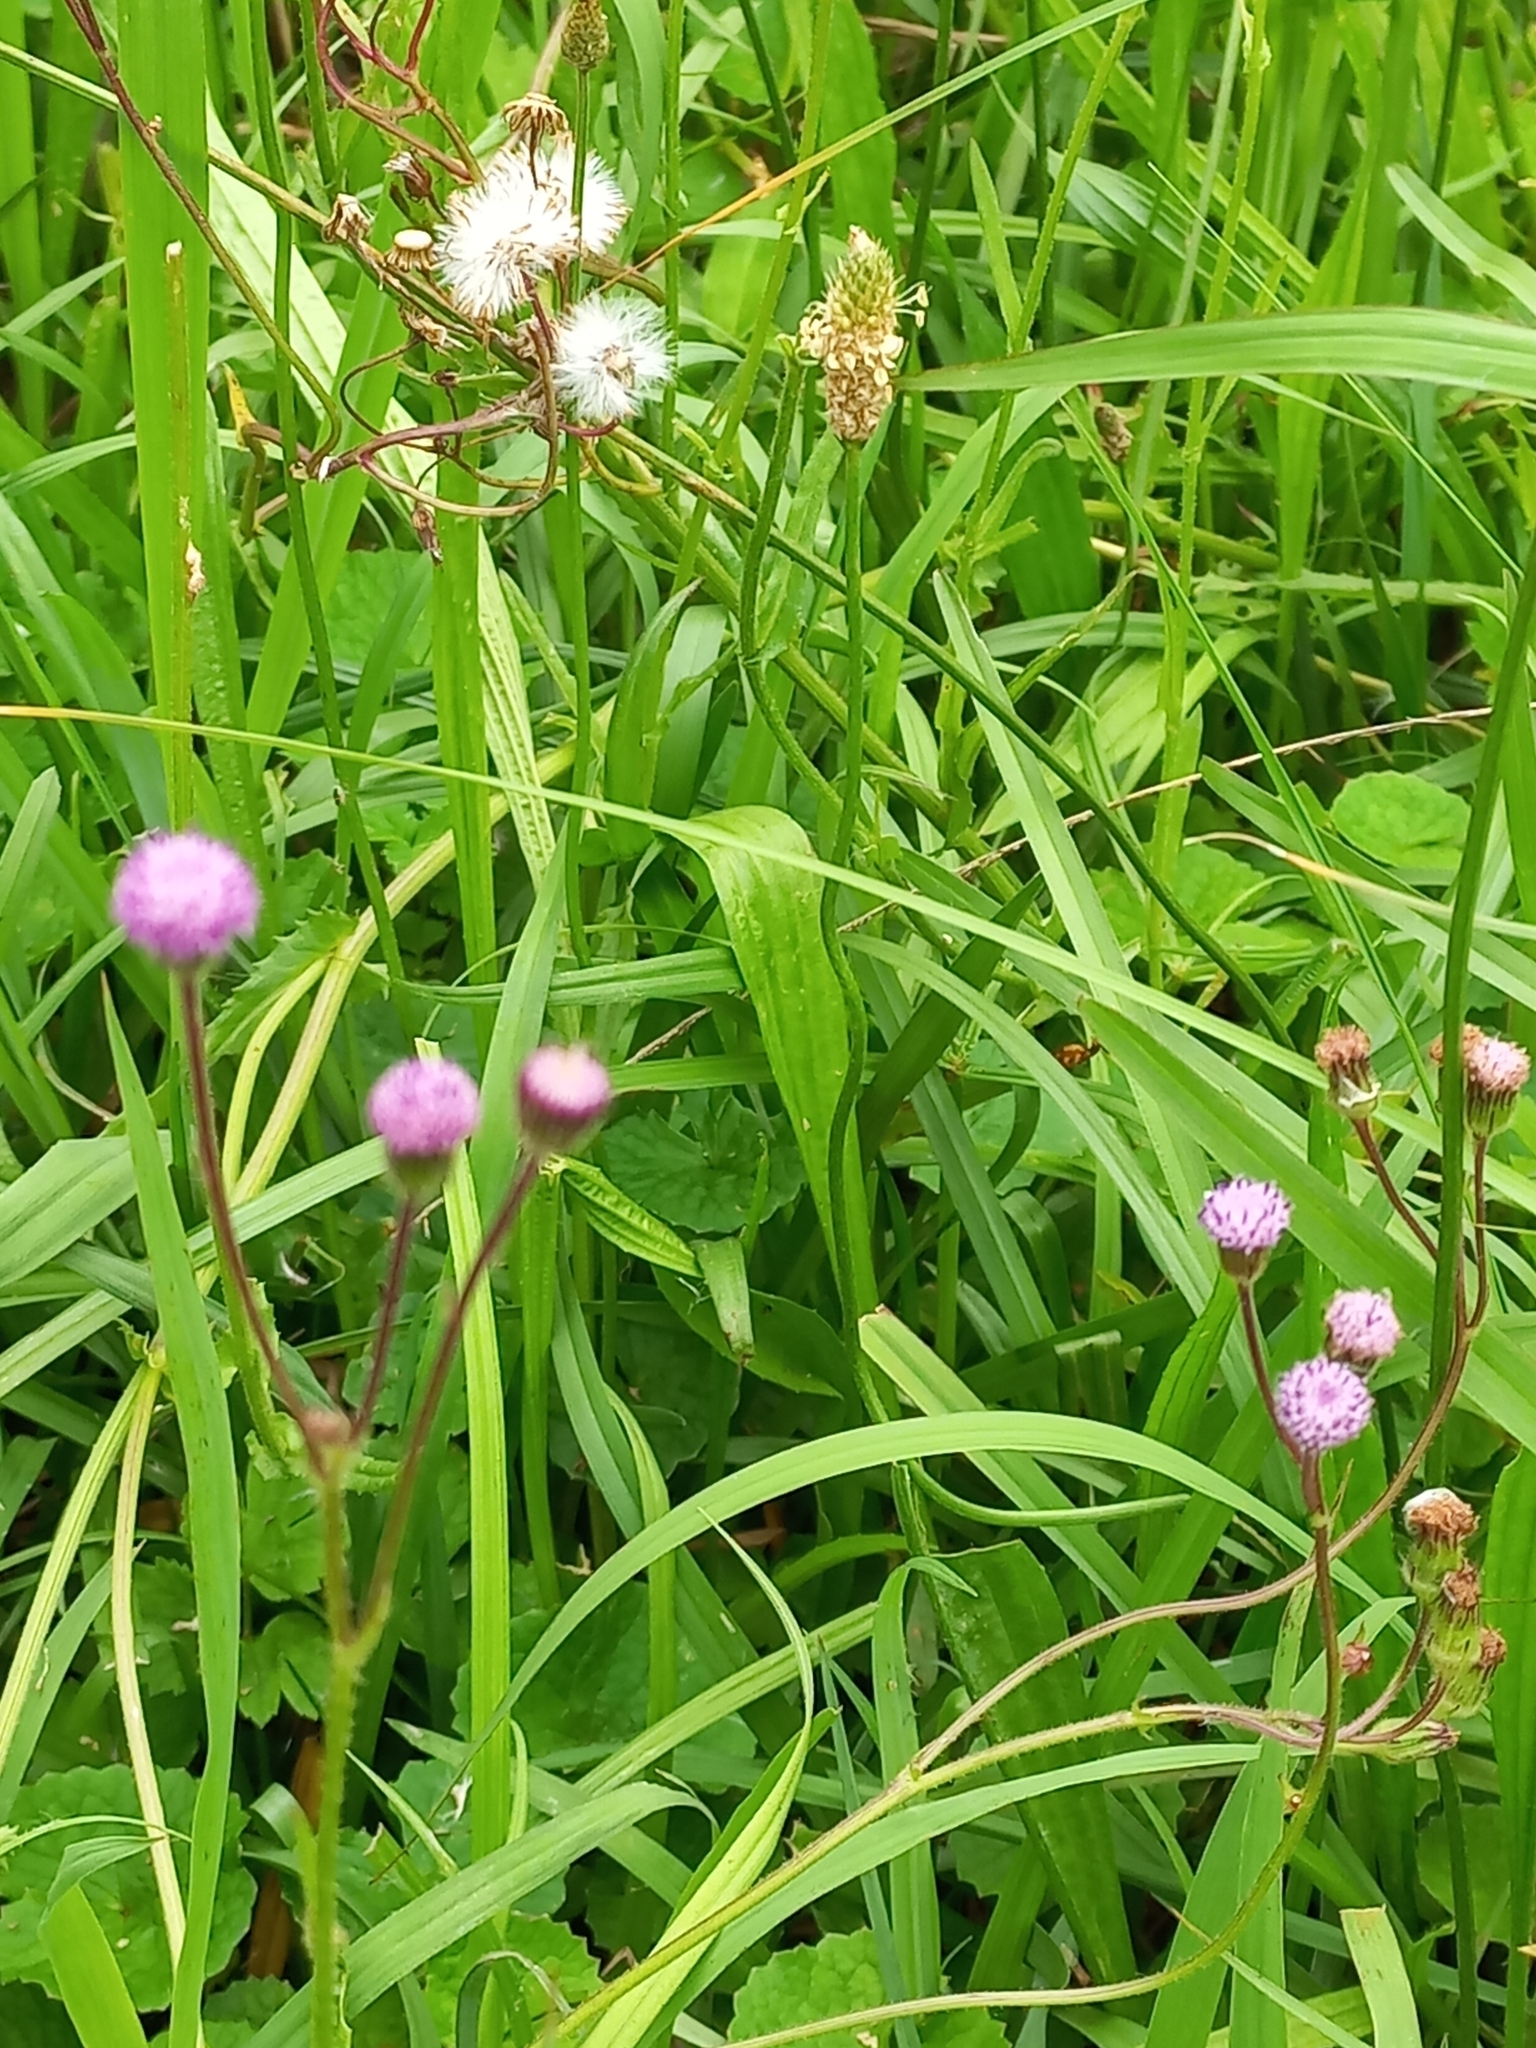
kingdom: Plantae
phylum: Tracheophyta
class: Magnoliopsida
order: Asterales
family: Asteraceae
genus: Senecio
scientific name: Senecio polyodon
